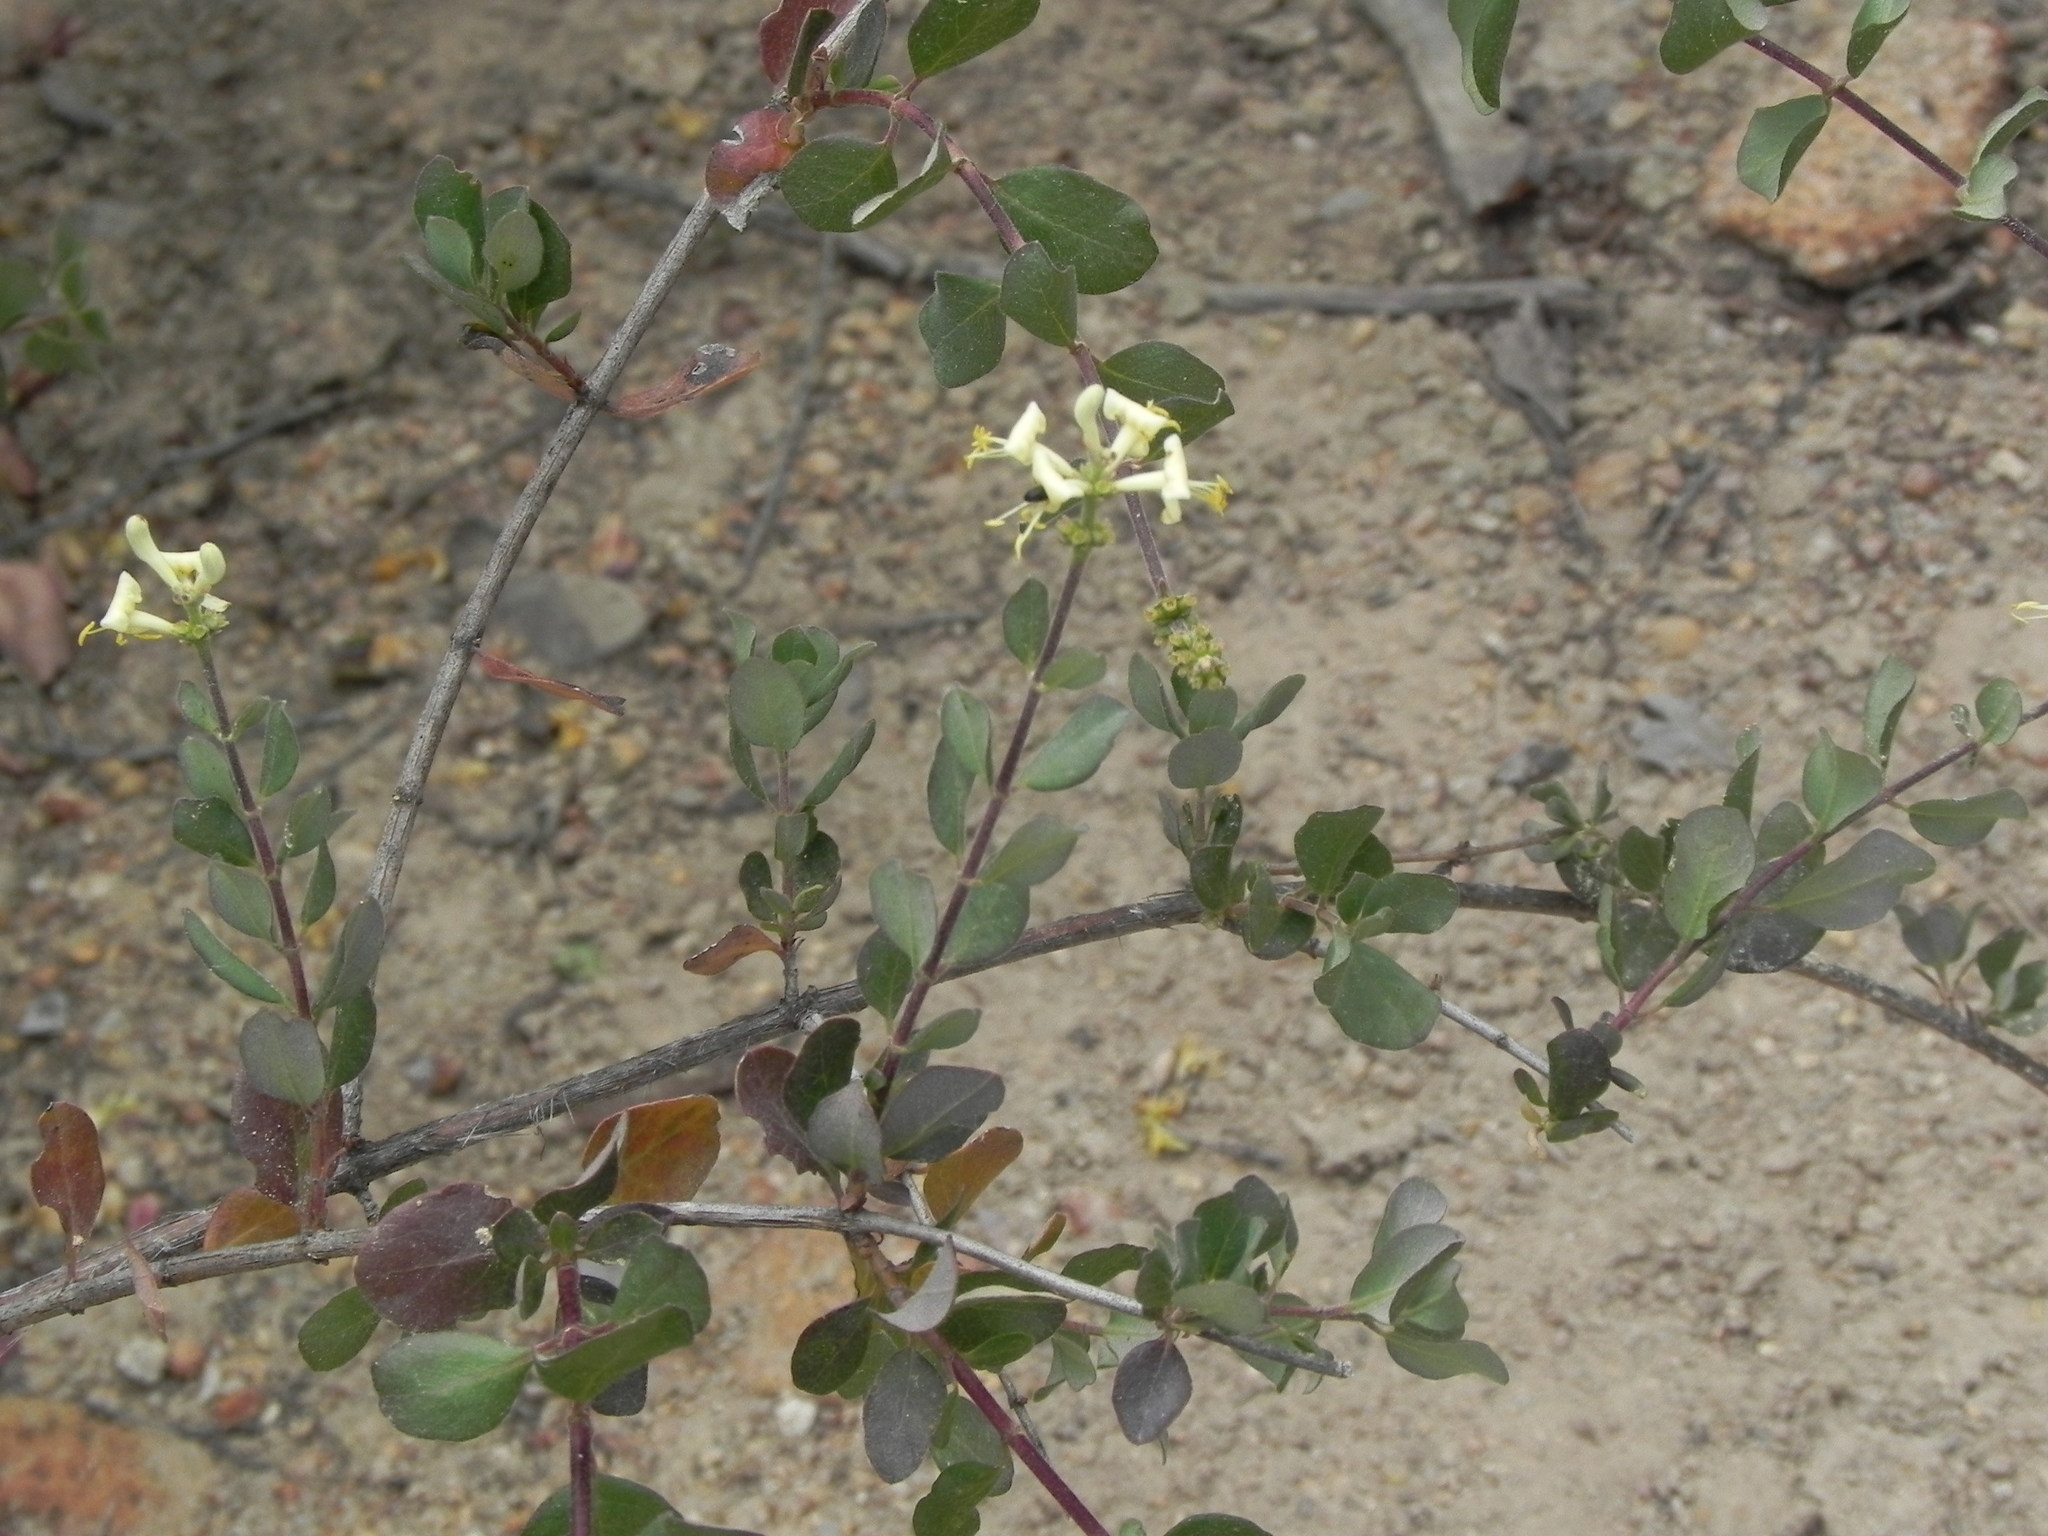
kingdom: Plantae
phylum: Tracheophyta
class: Magnoliopsida
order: Dipsacales
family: Caprifoliaceae
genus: Lonicera
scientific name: Lonicera subspicata
